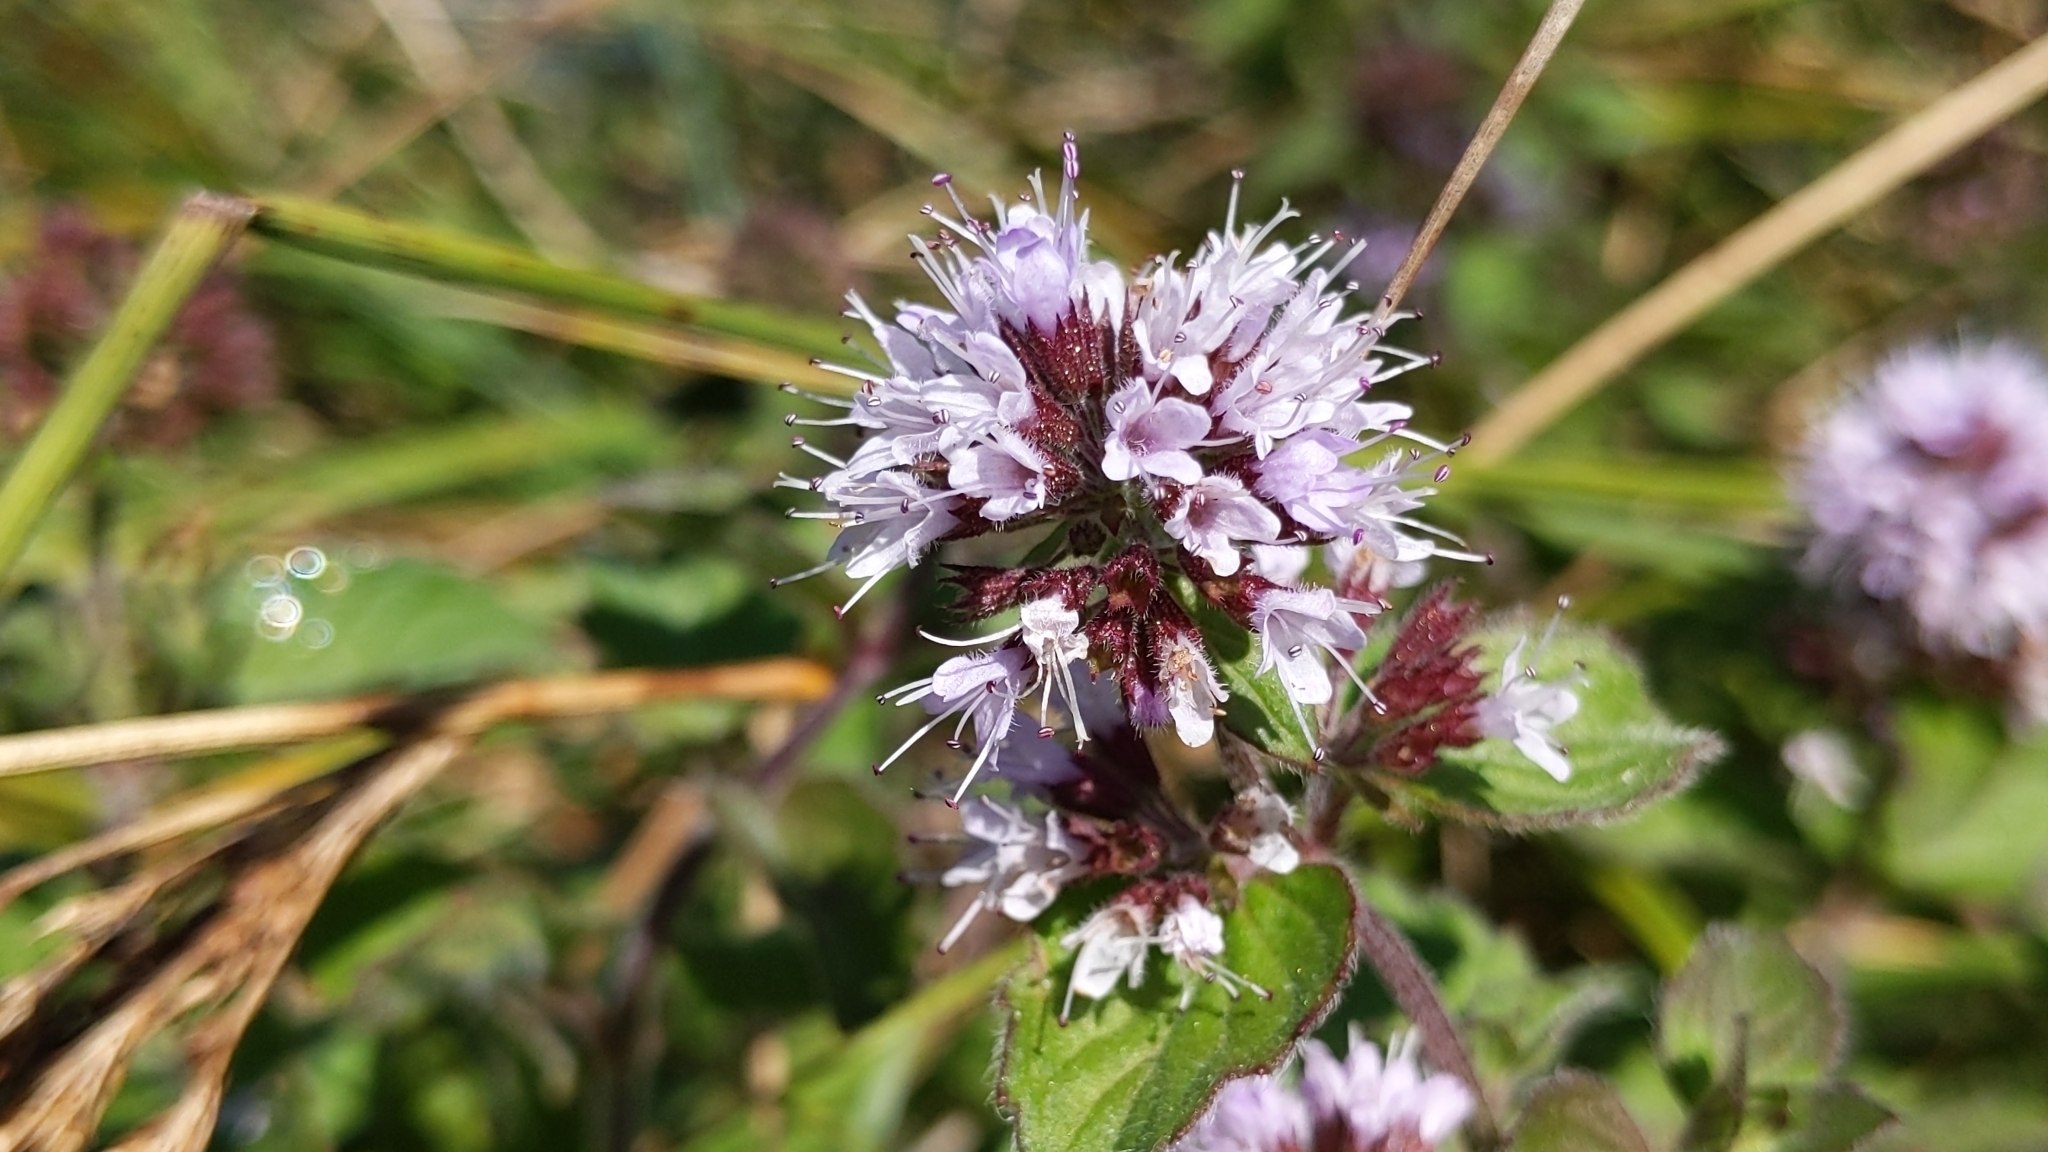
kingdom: Plantae
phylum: Tracheophyta
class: Magnoliopsida
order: Lamiales
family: Lamiaceae
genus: Mentha
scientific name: Mentha aquatica
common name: Water mint
